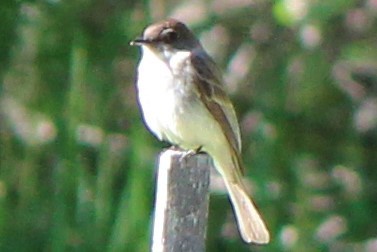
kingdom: Animalia
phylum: Chordata
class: Aves
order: Passeriformes
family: Tyrannidae
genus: Sayornis
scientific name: Sayornis phoebe
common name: Eastern phoebe
